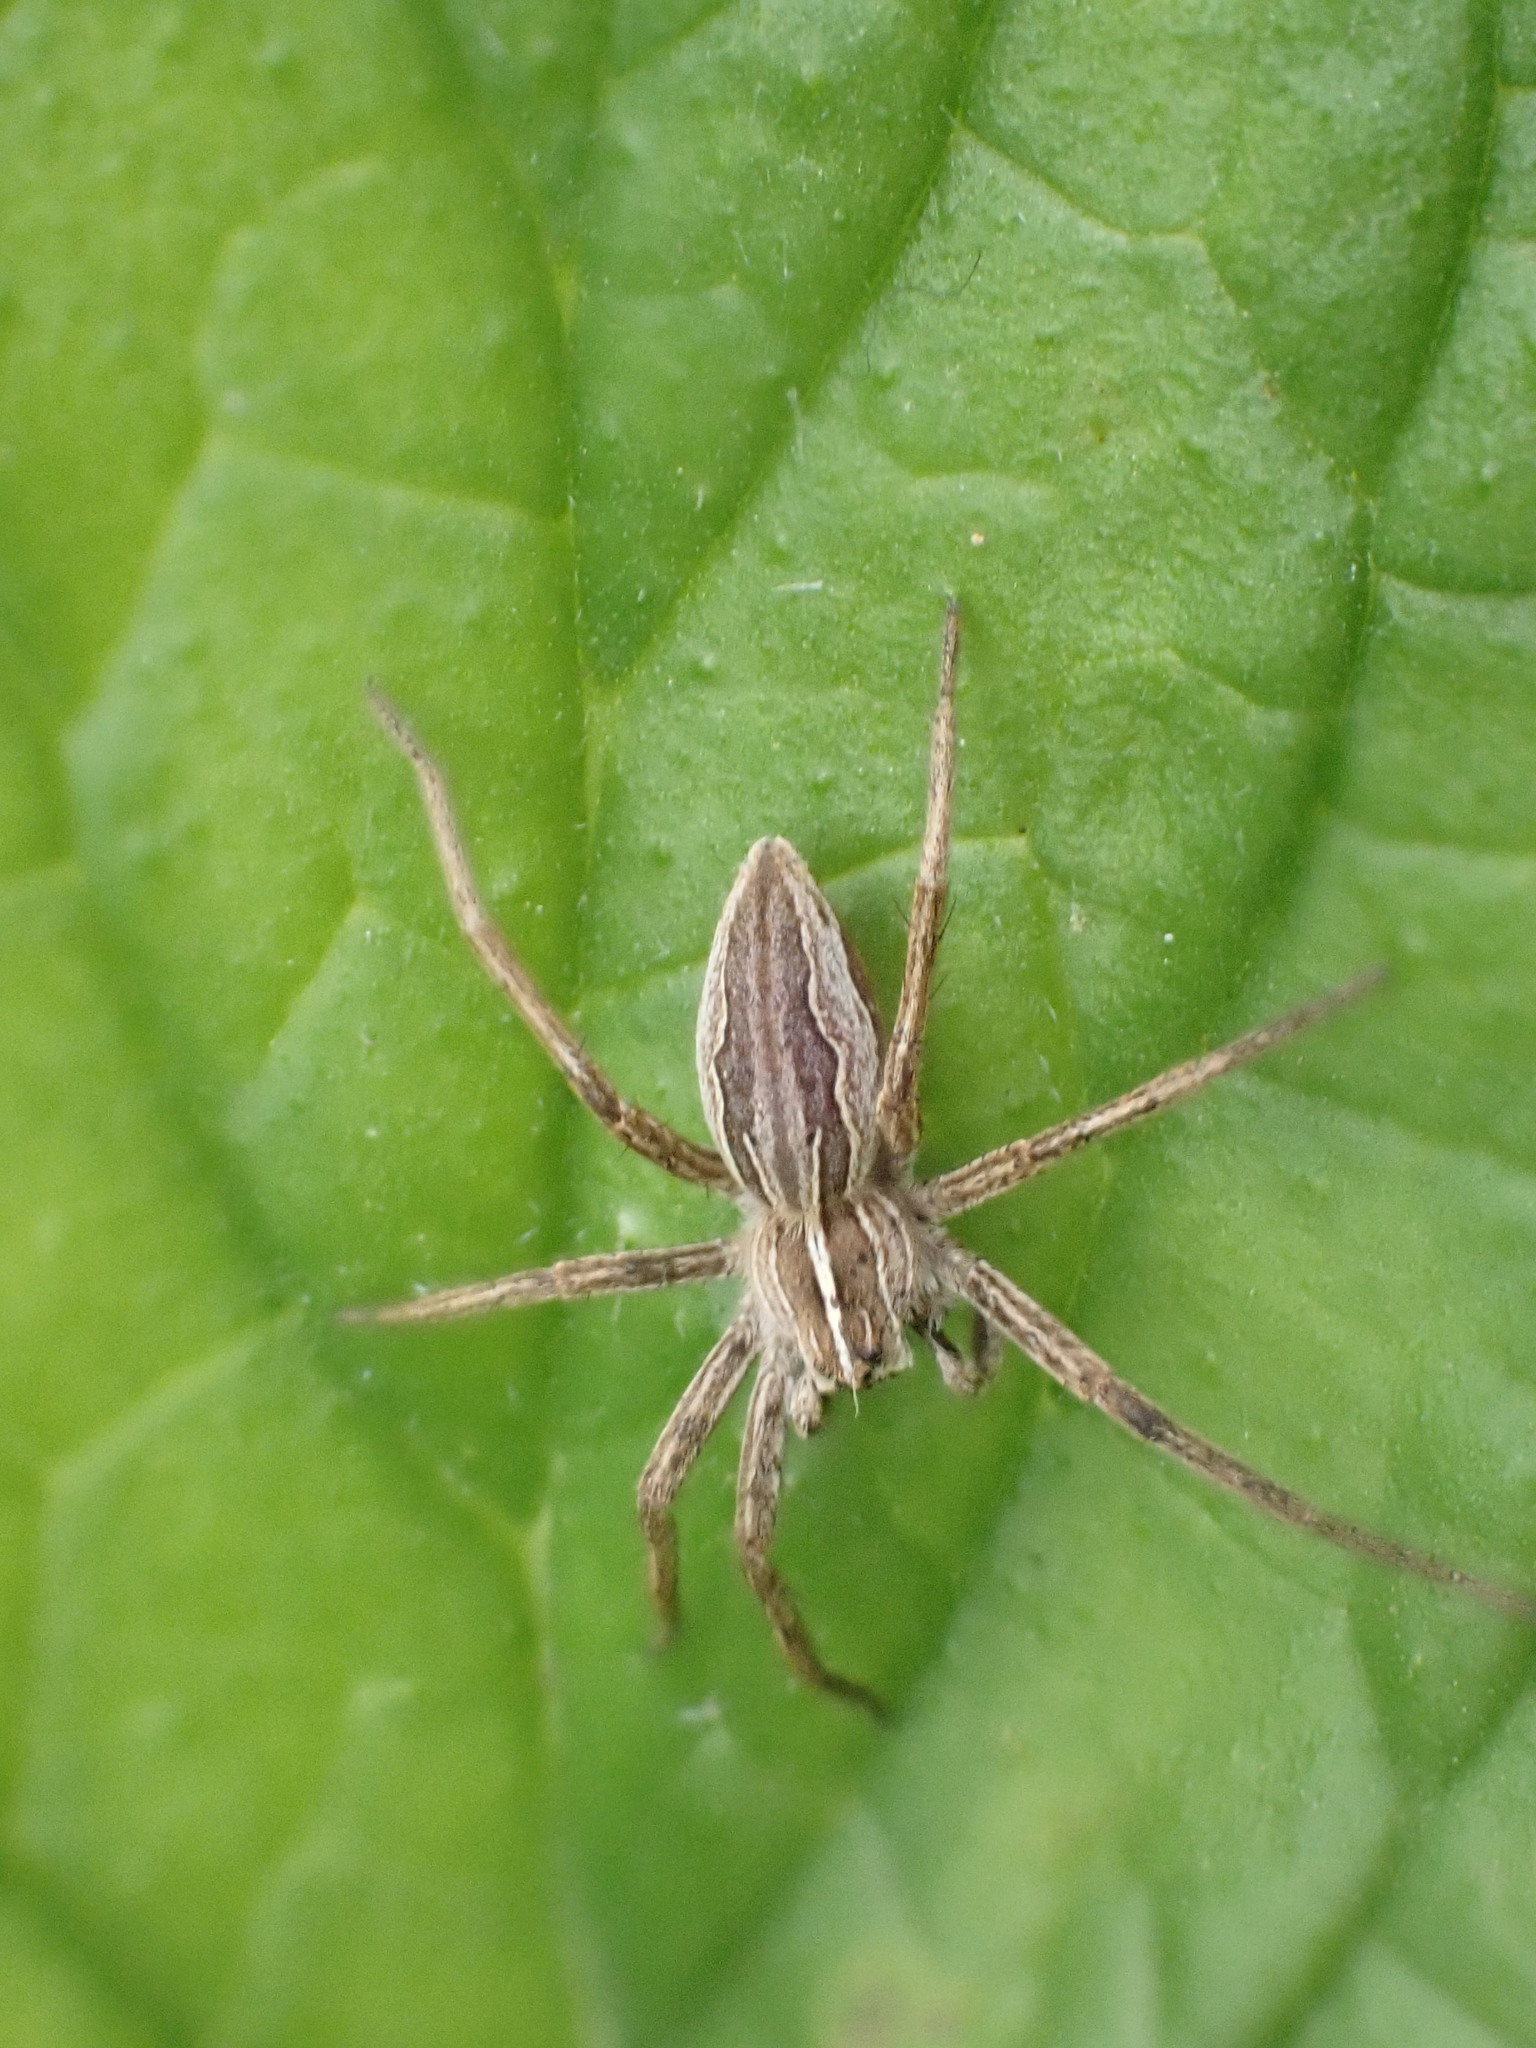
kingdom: Animalia
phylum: Arthropoda
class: Arachnida
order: Araneae
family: Pisauridae
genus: Pisaura
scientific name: Pisaura mirabilis
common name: Tent spider
